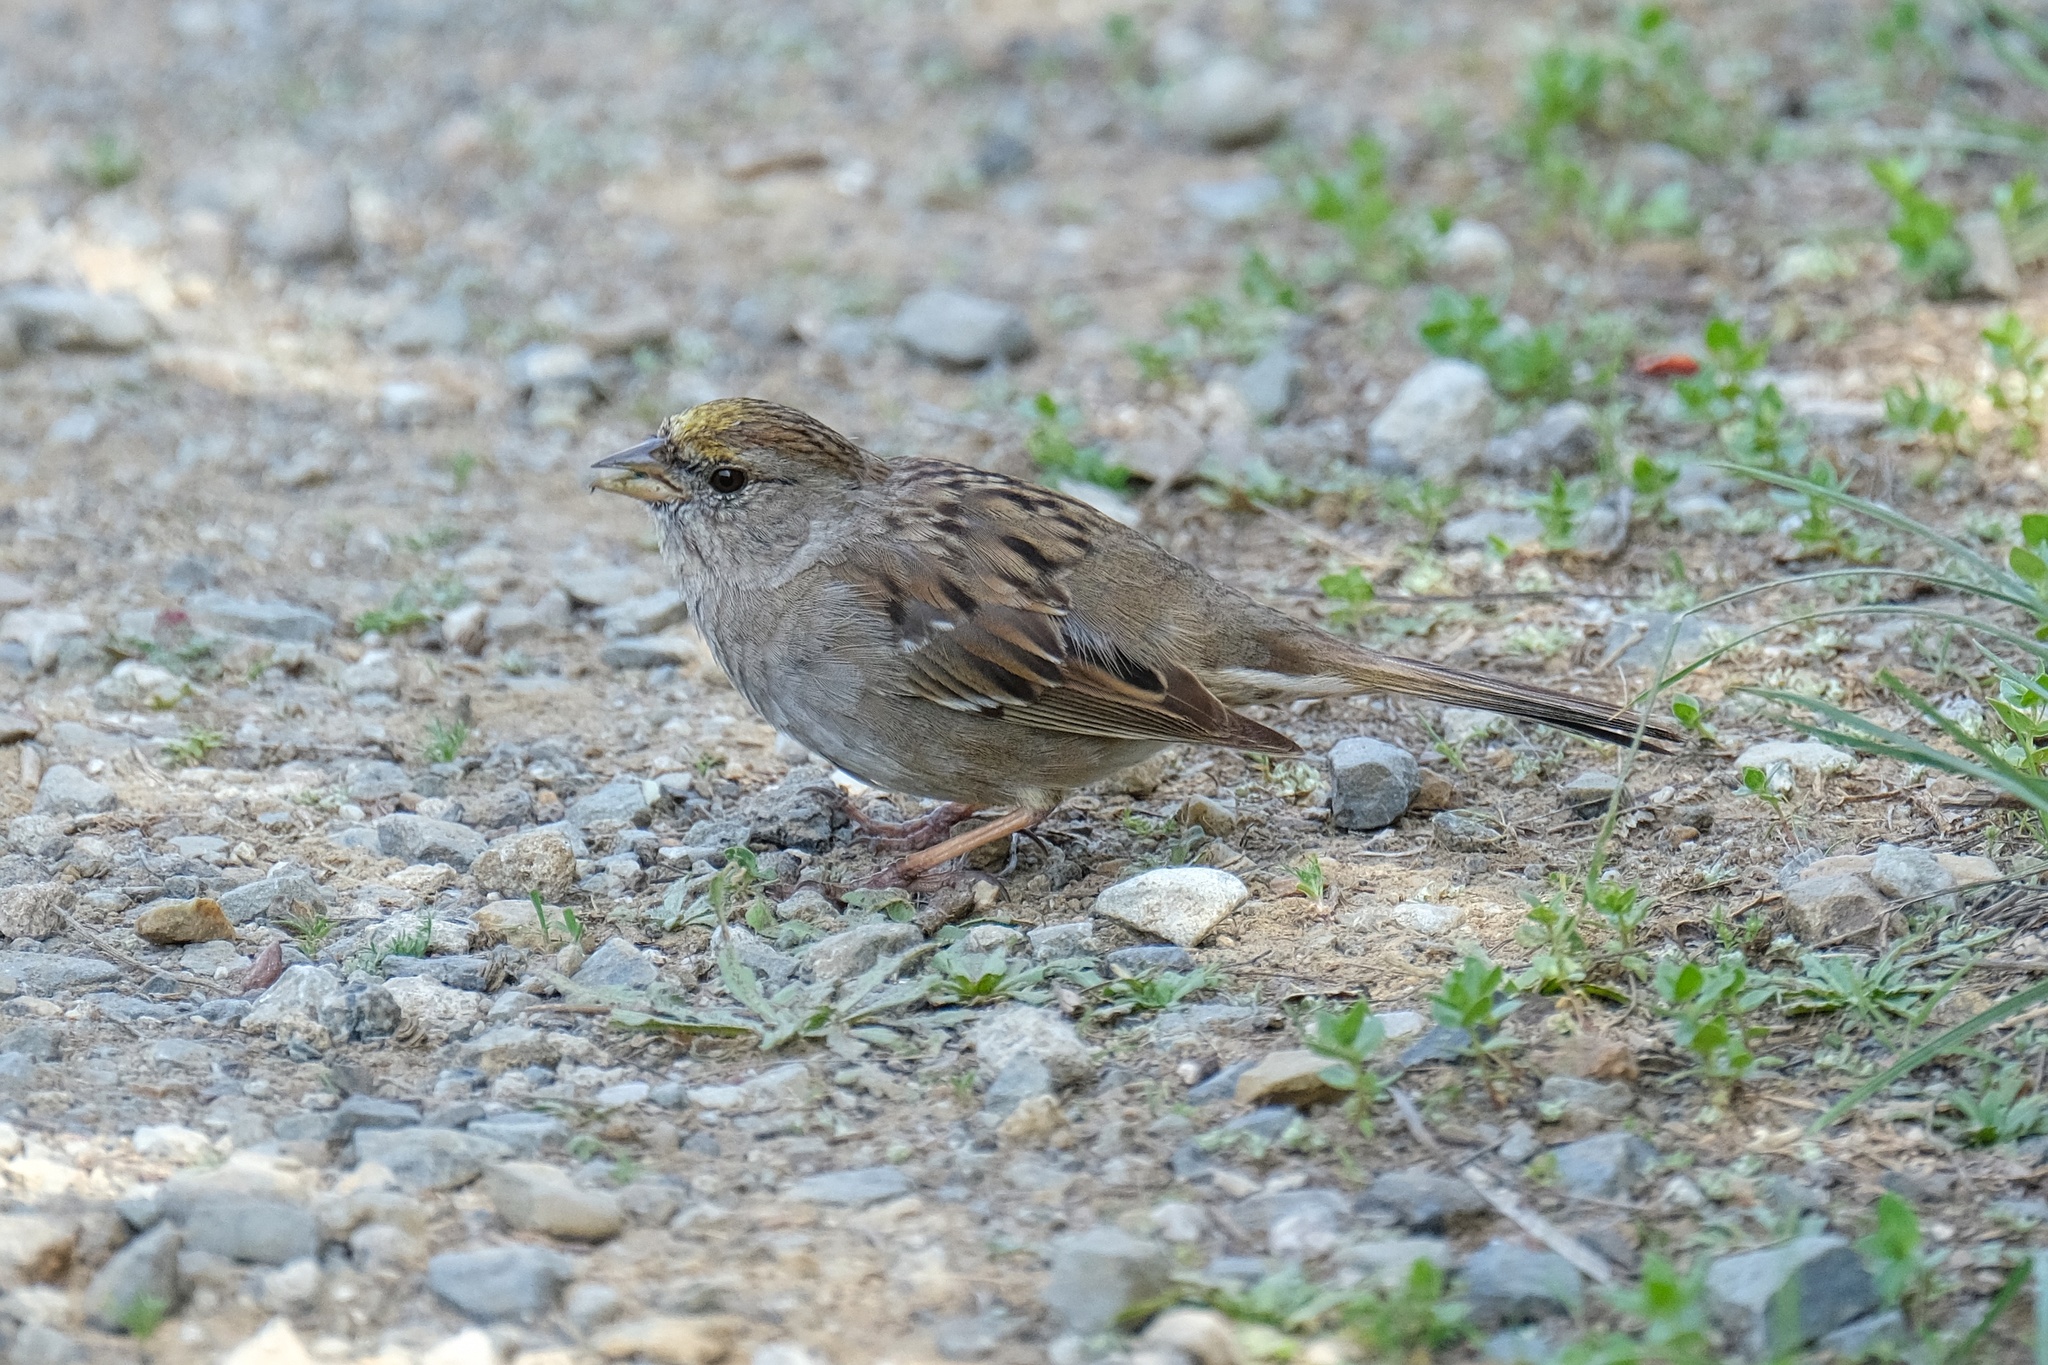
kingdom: Animalia
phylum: Chordata
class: Aves
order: Passeriformes
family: Passerellidae
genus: Zonotrichia
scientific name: Zonotrichia atricapilla
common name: Golden-crowned sparrow
